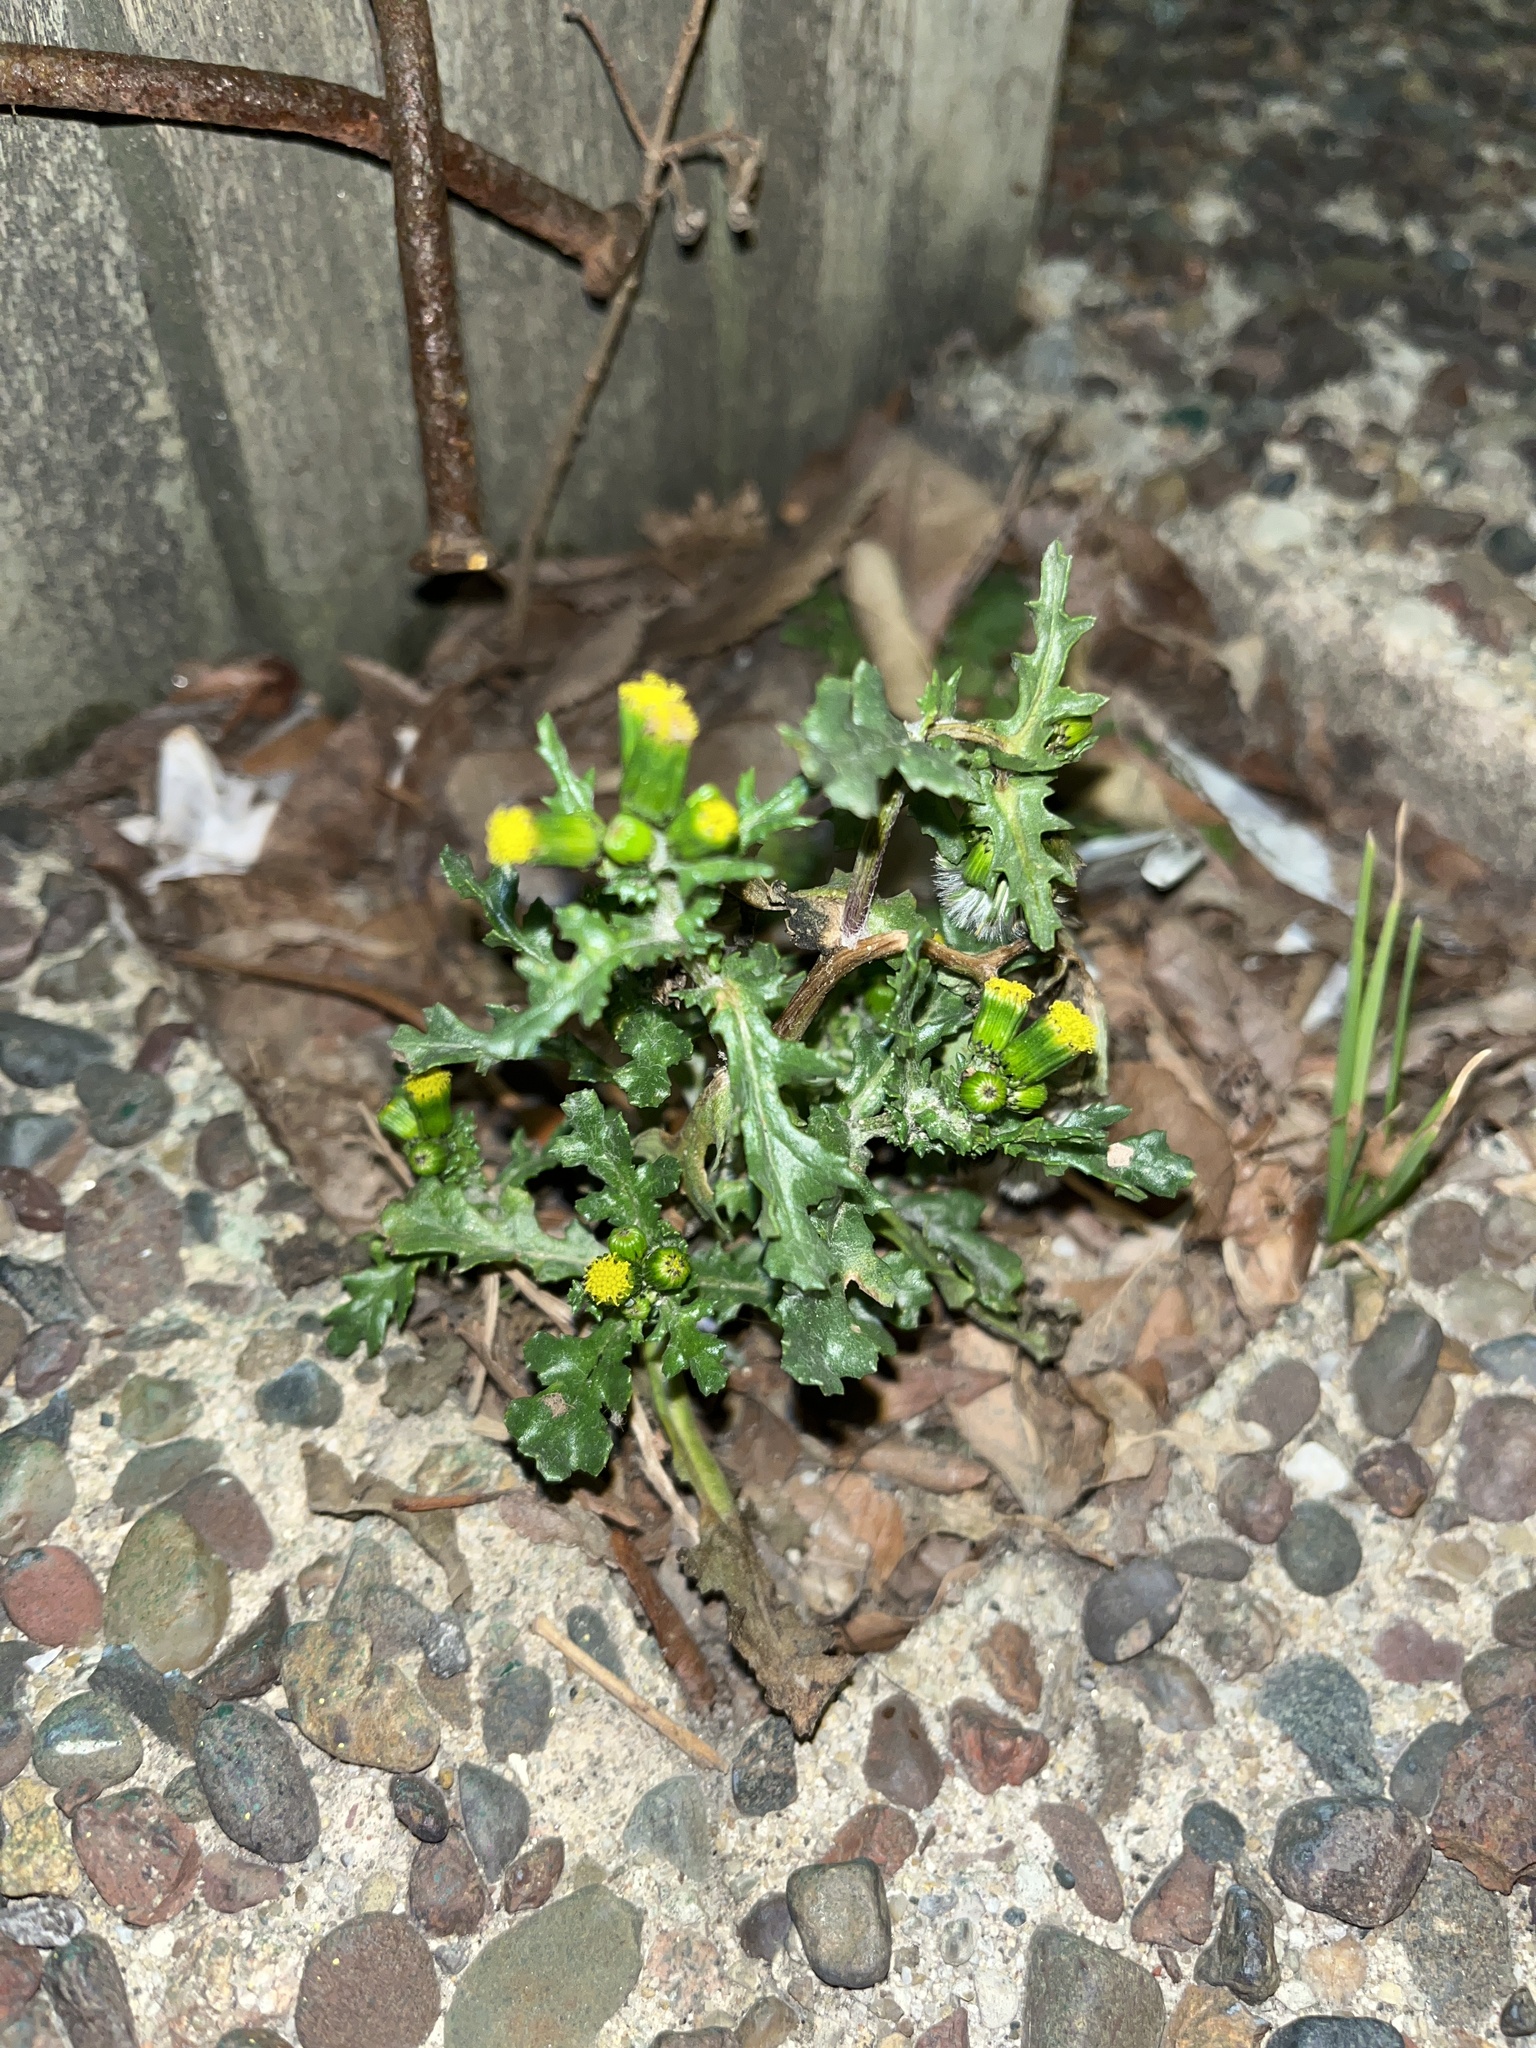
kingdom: Plantae
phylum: Tracheophyta
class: Magnoliopsida
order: Asterales
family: Asteraceae
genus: Senecio
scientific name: Senecio vulgaris
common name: Old-man-in-the-spring
